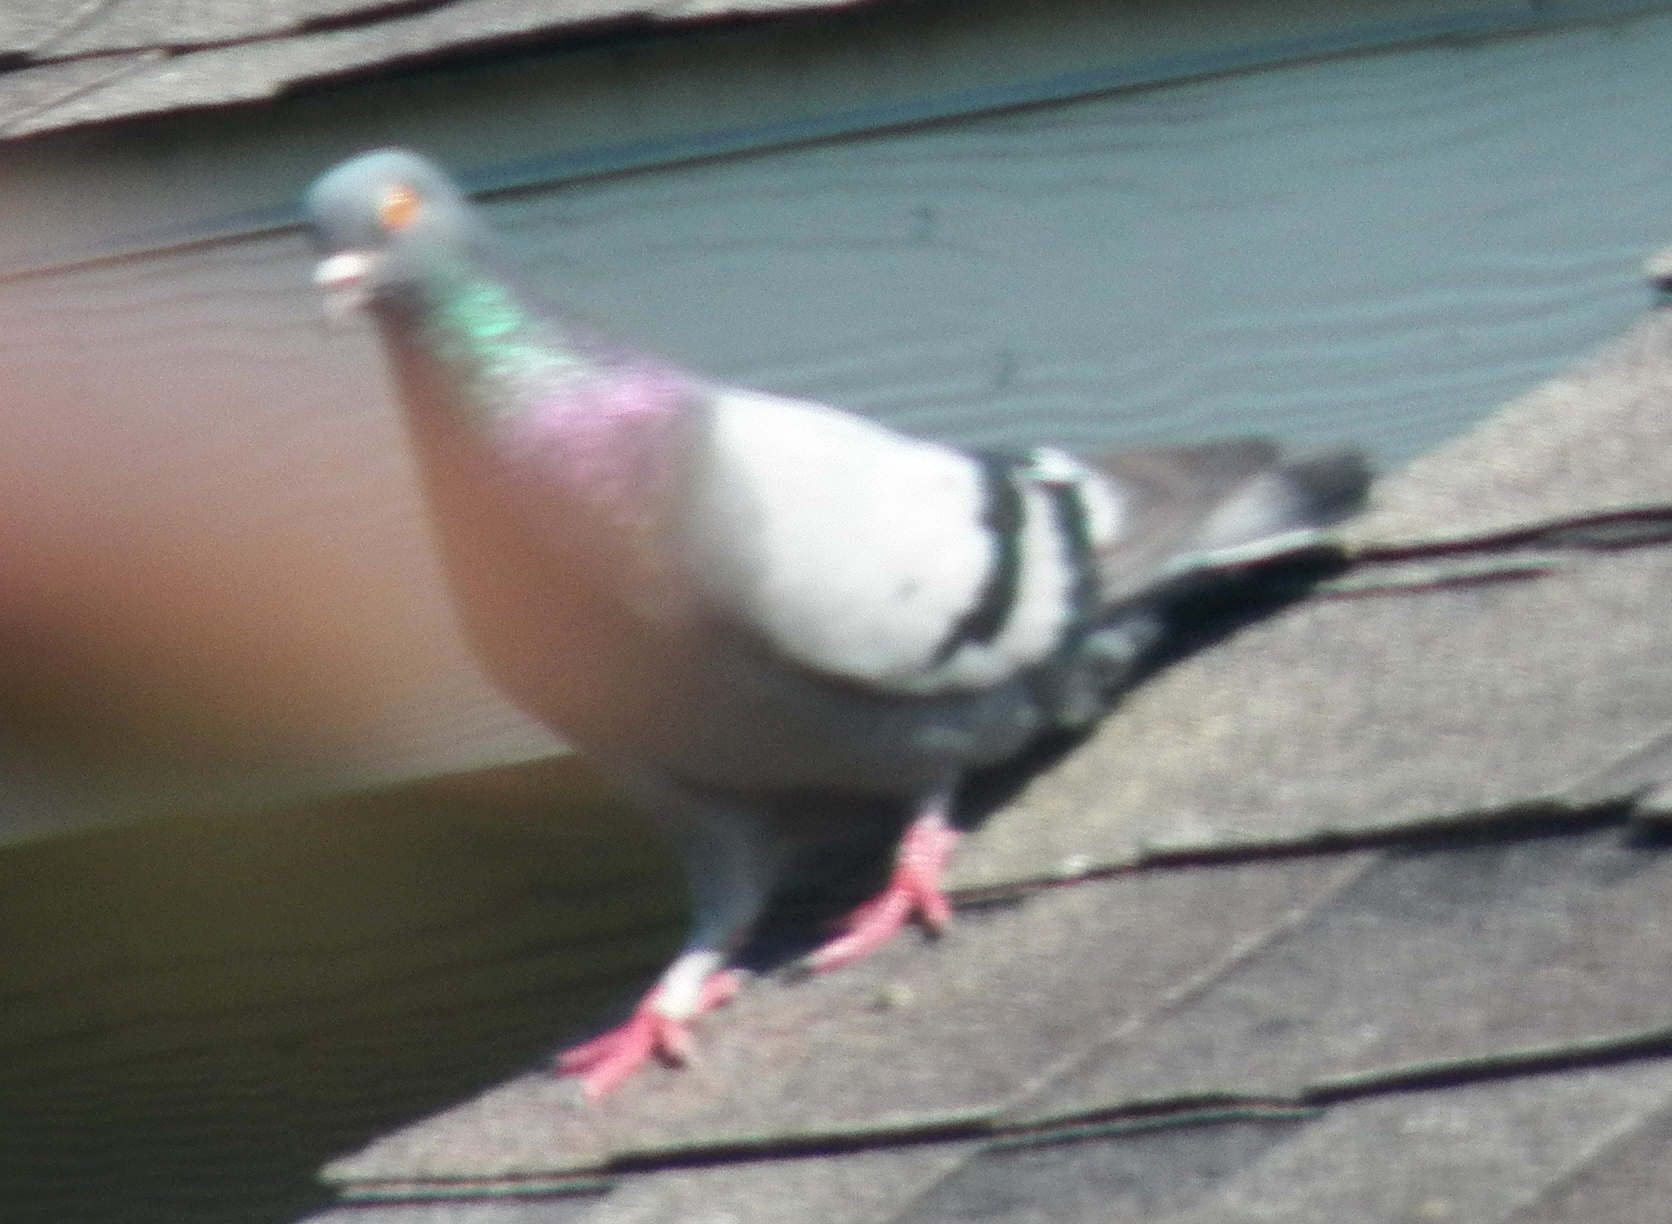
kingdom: Animalia
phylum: Chordata
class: Aves
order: Columbiformes
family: Columbidae
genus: Columba
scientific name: Columba livia
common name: Rock pigeon
